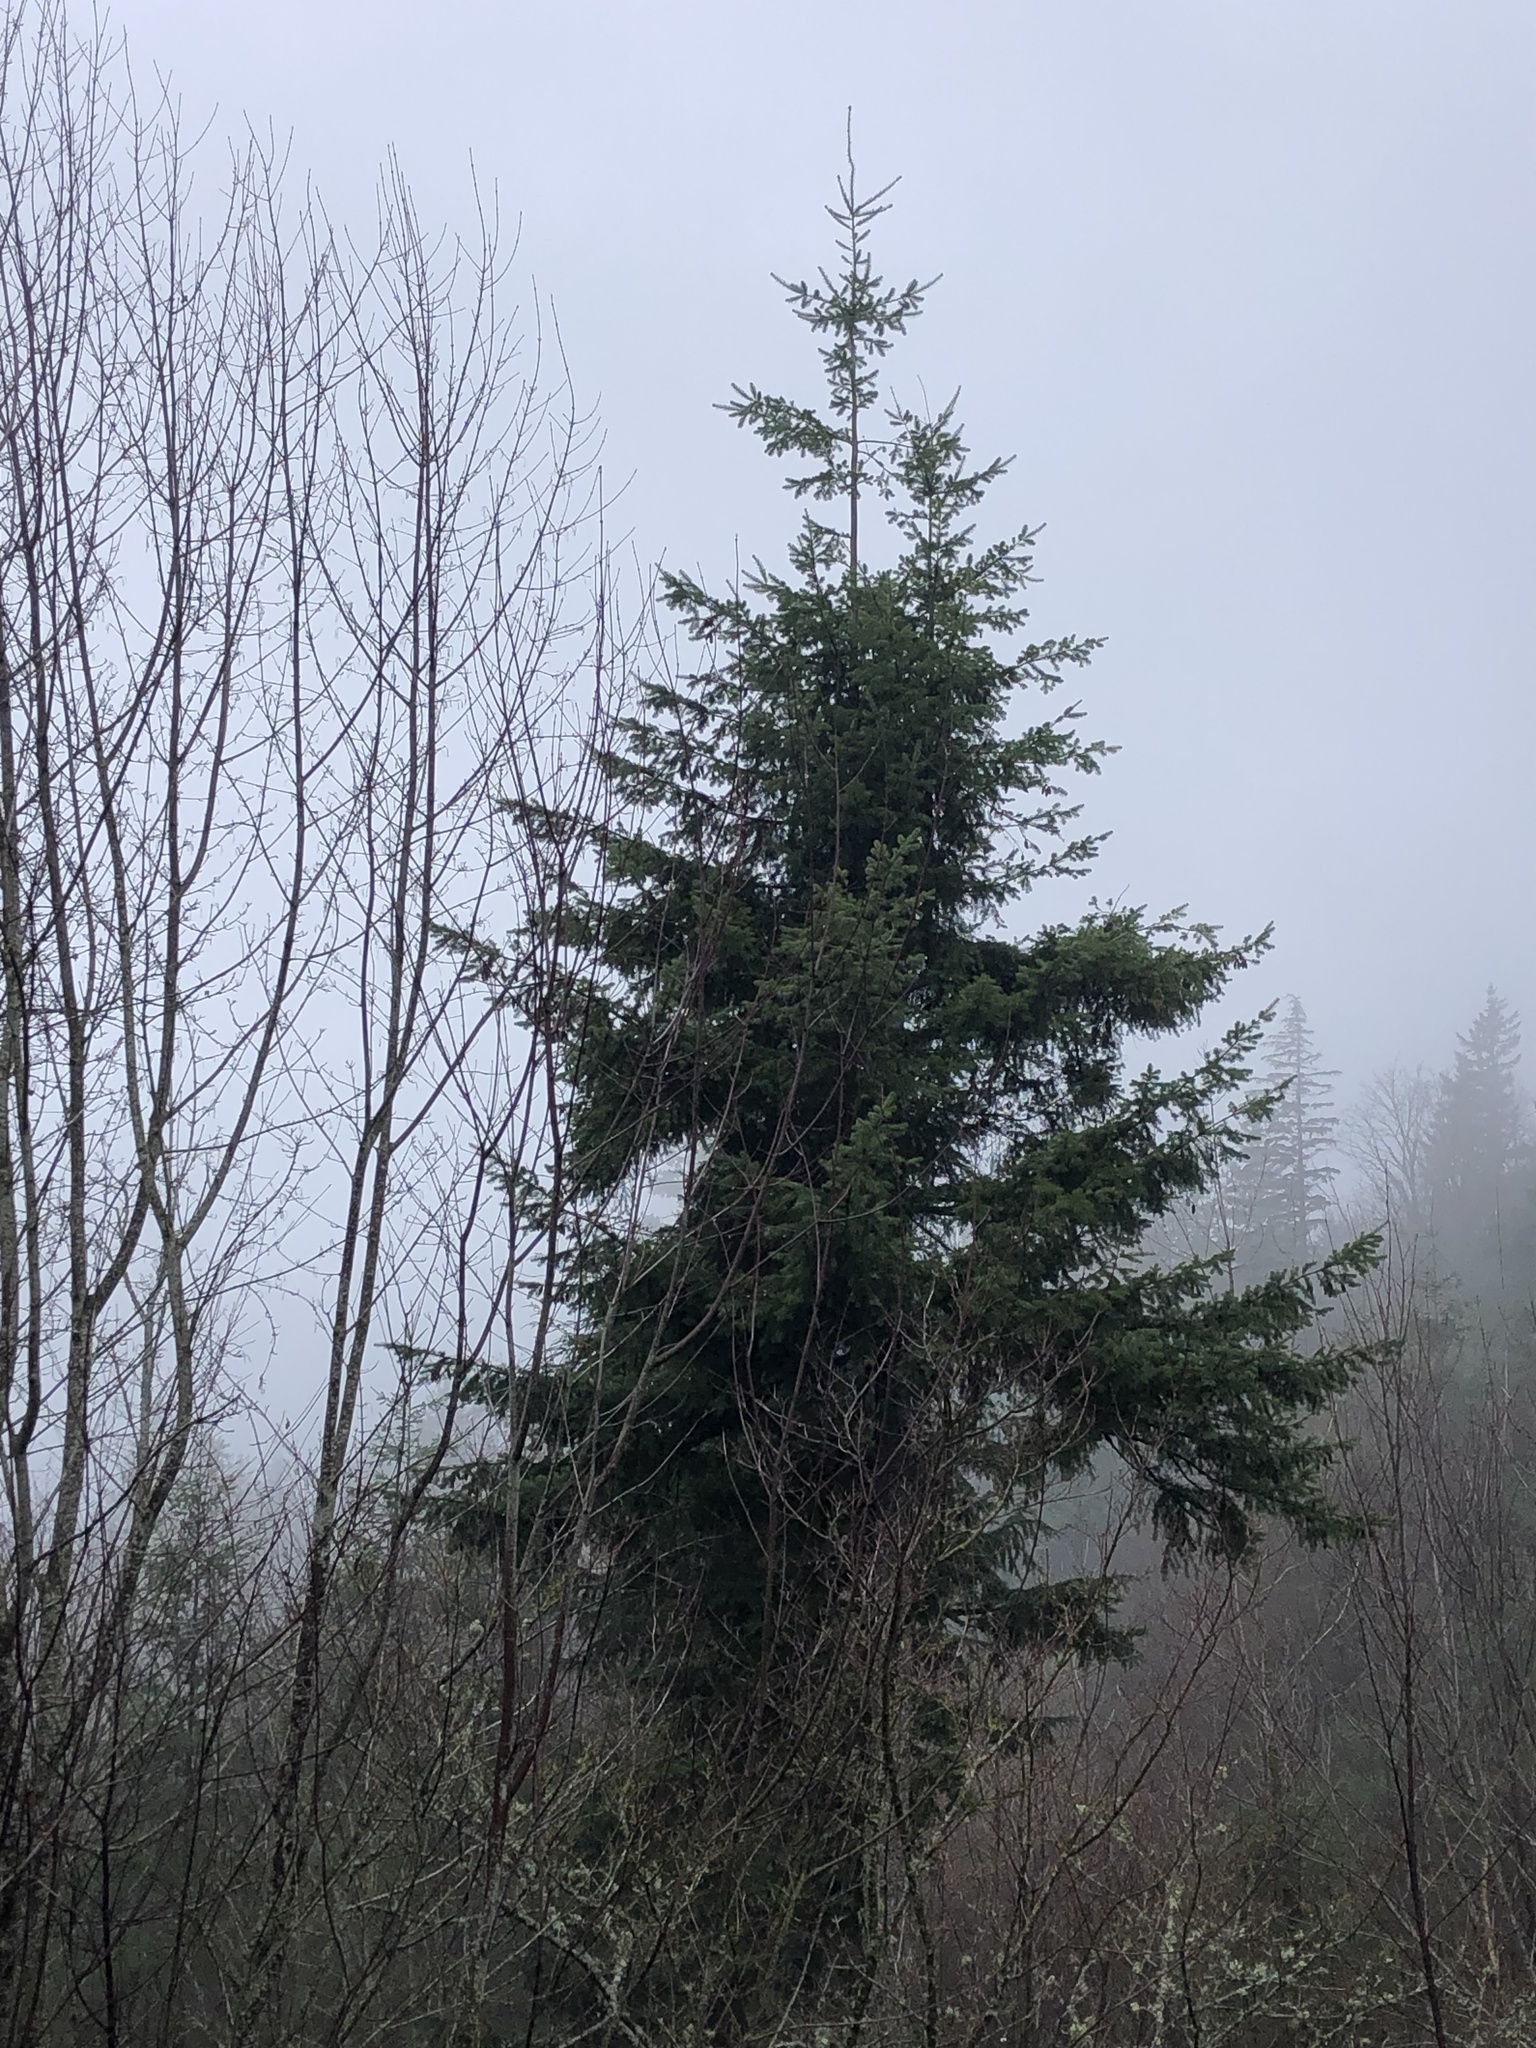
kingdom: Plantae
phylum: Tracheophyta
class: Pinopsida
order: Pinales
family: Pinaceae
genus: Pseudotsuga
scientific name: Pseudotsuga menziesii
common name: Douglas fir
